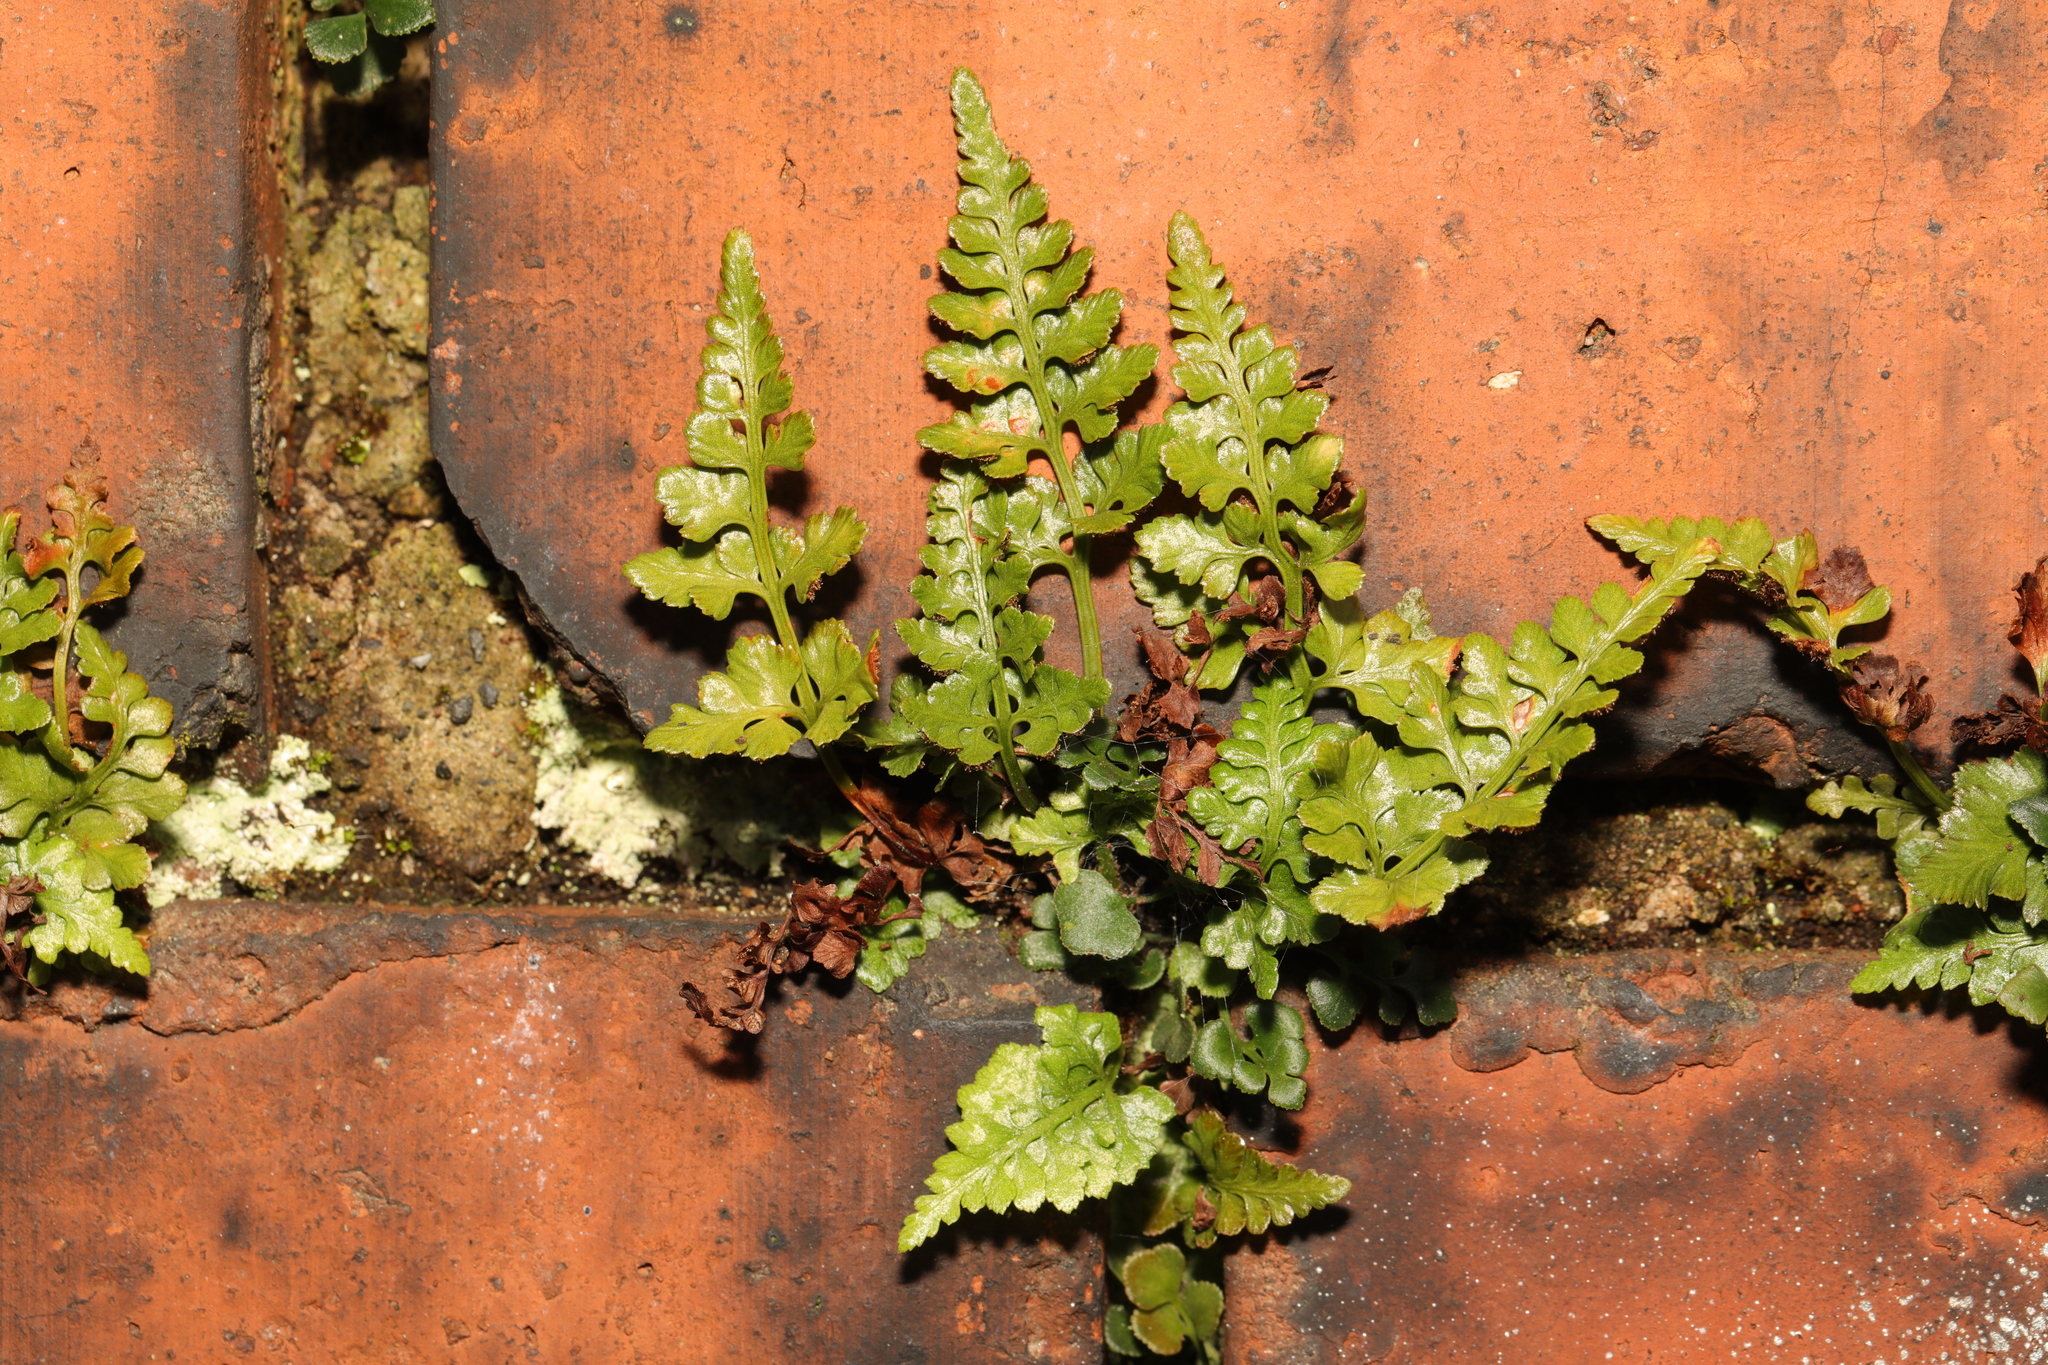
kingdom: Plantae
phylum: Tracheophyta
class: Polypodiopsida
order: Polypodiales
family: Aspleniaceae
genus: Asplenium
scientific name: Asplenium adiantum-nigrum
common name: Black spleenwort
